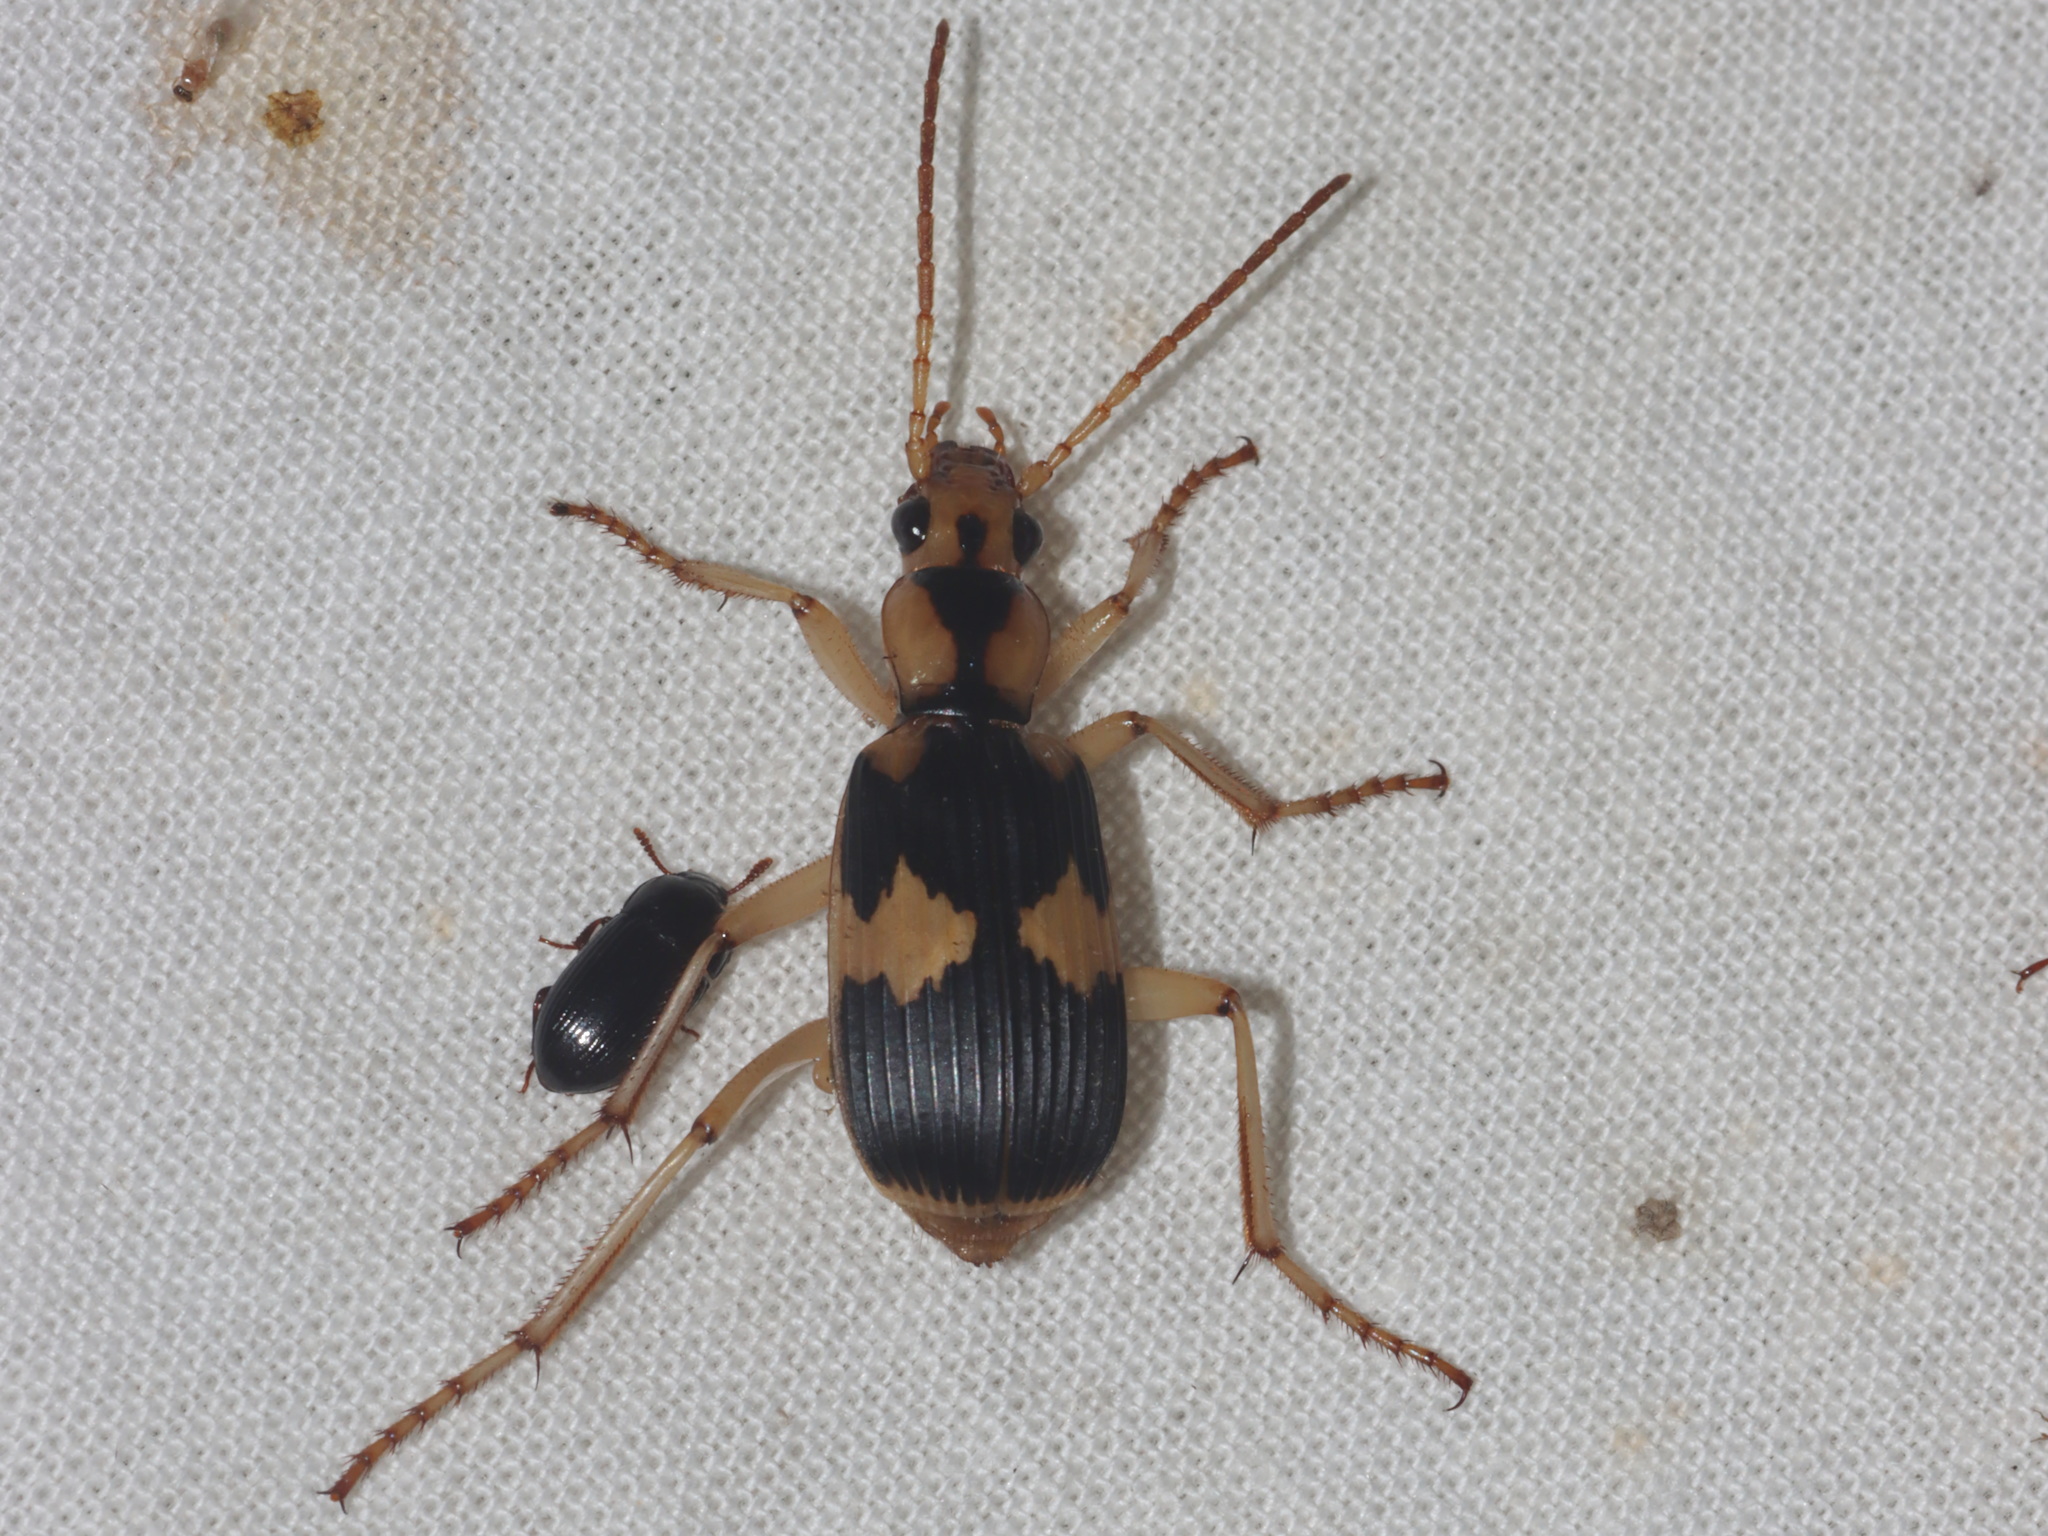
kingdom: Animalia
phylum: Arthropoda
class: Insecta
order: Coleoptera
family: Carabidae
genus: Pheropsophus
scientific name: Pheropsophus siamensis
